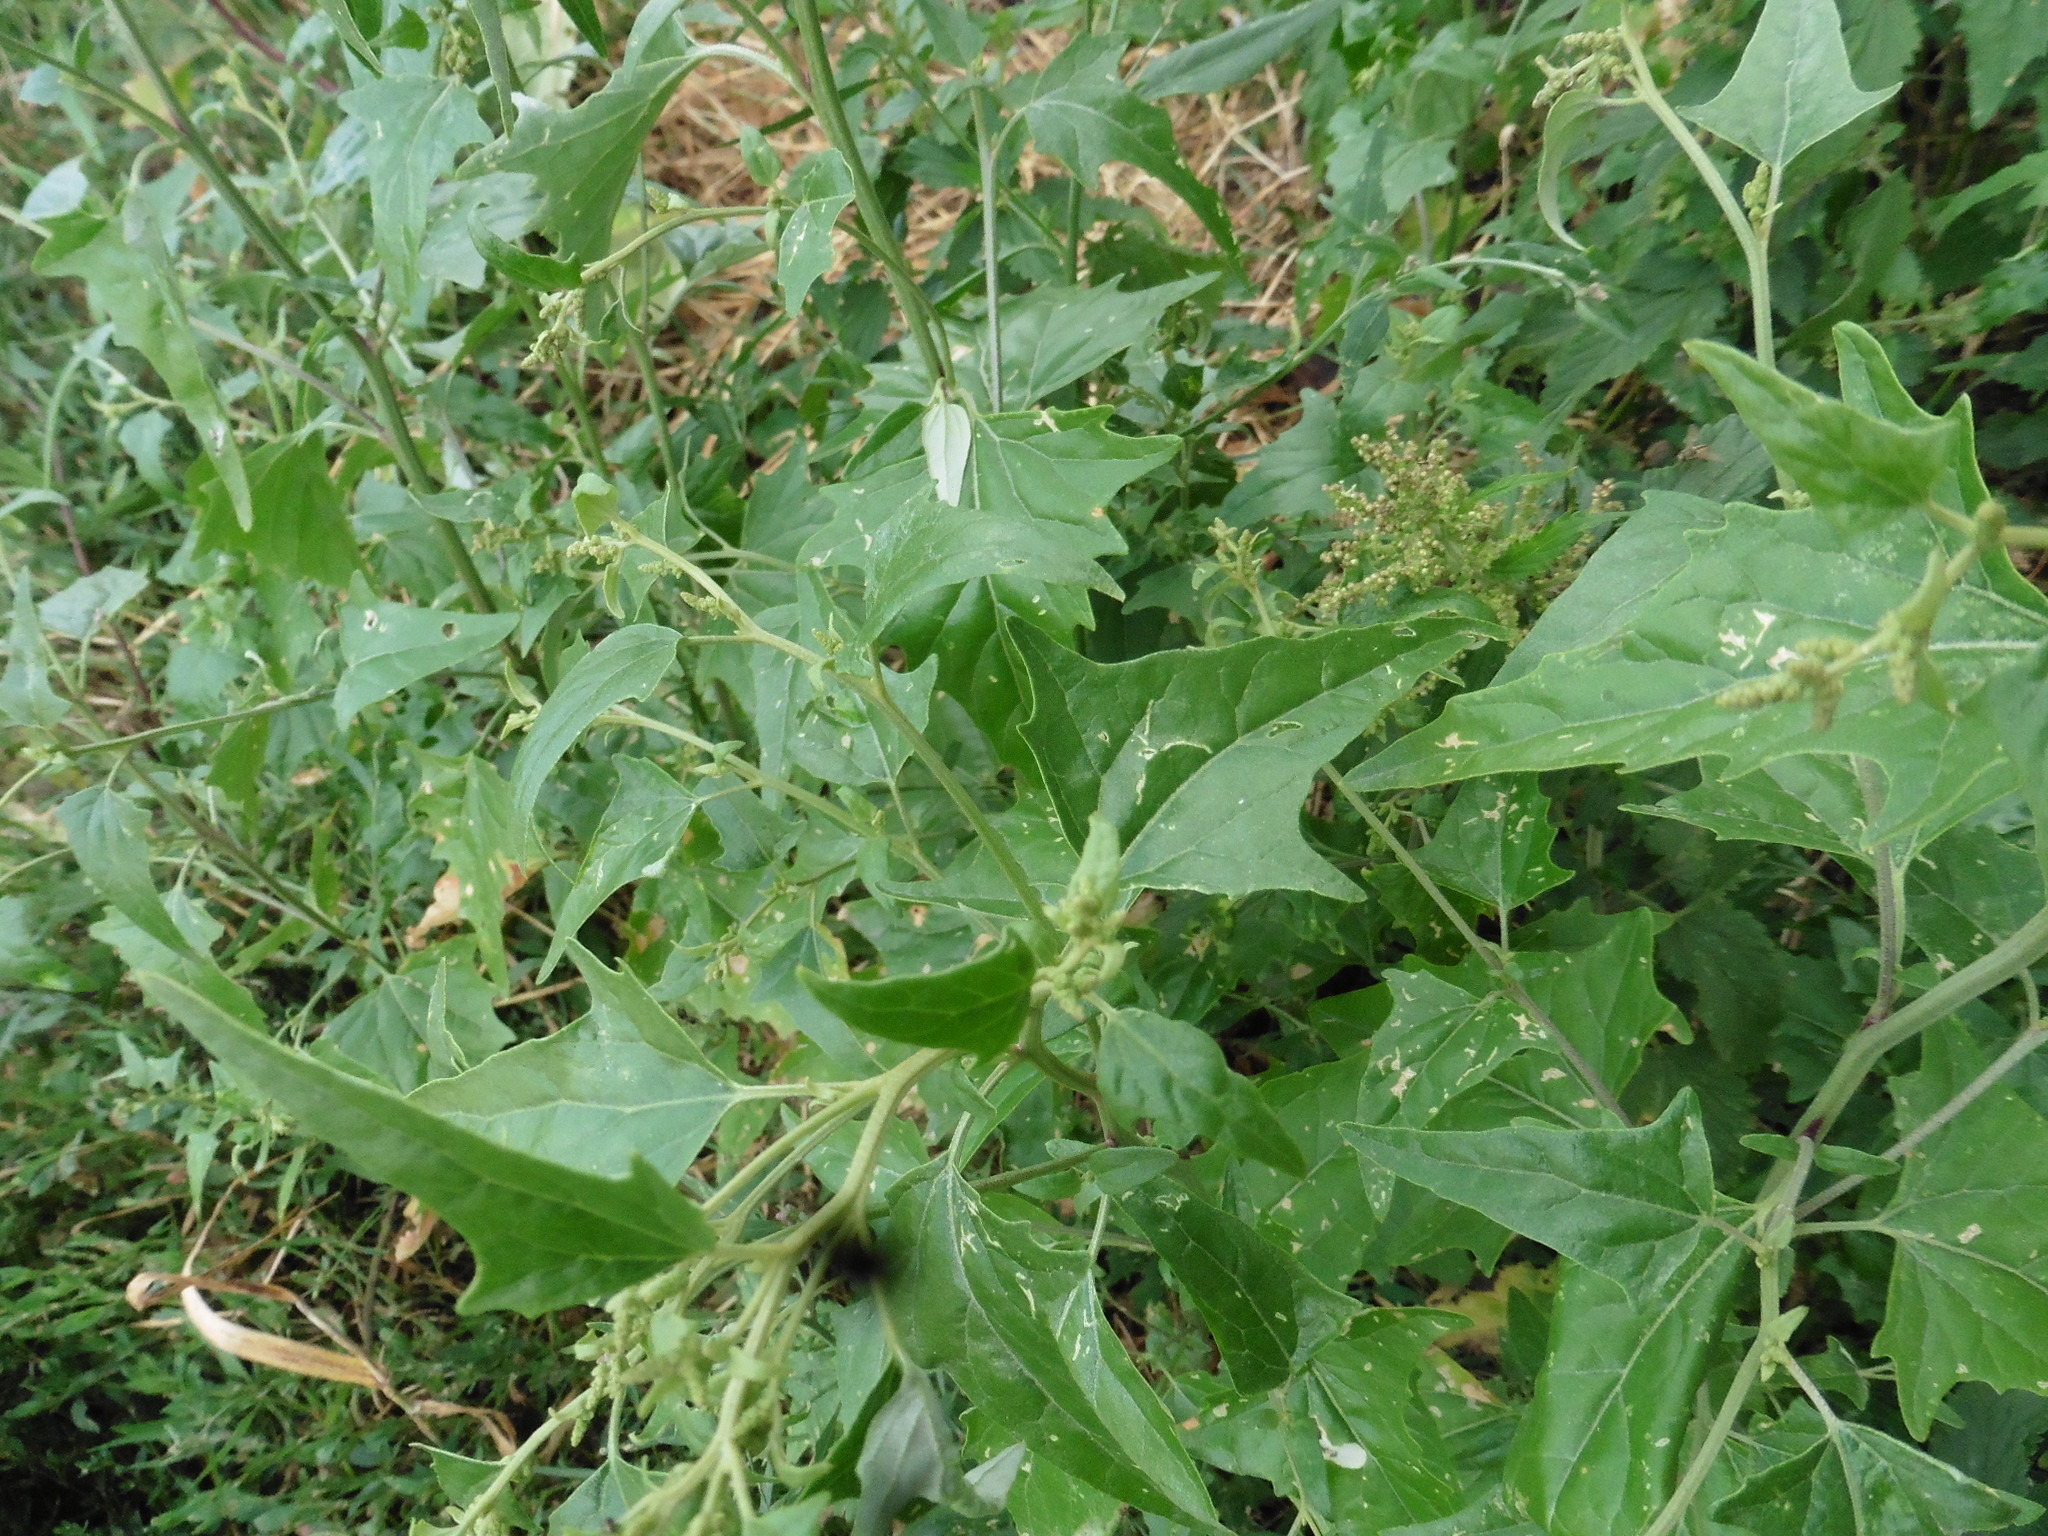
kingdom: Plantae
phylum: Tracheophyta
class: Magnoliopsida
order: Caryophyllales
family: Amaranthaceae
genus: Atriplex
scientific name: Atriplex sagittata
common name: Purple orache
